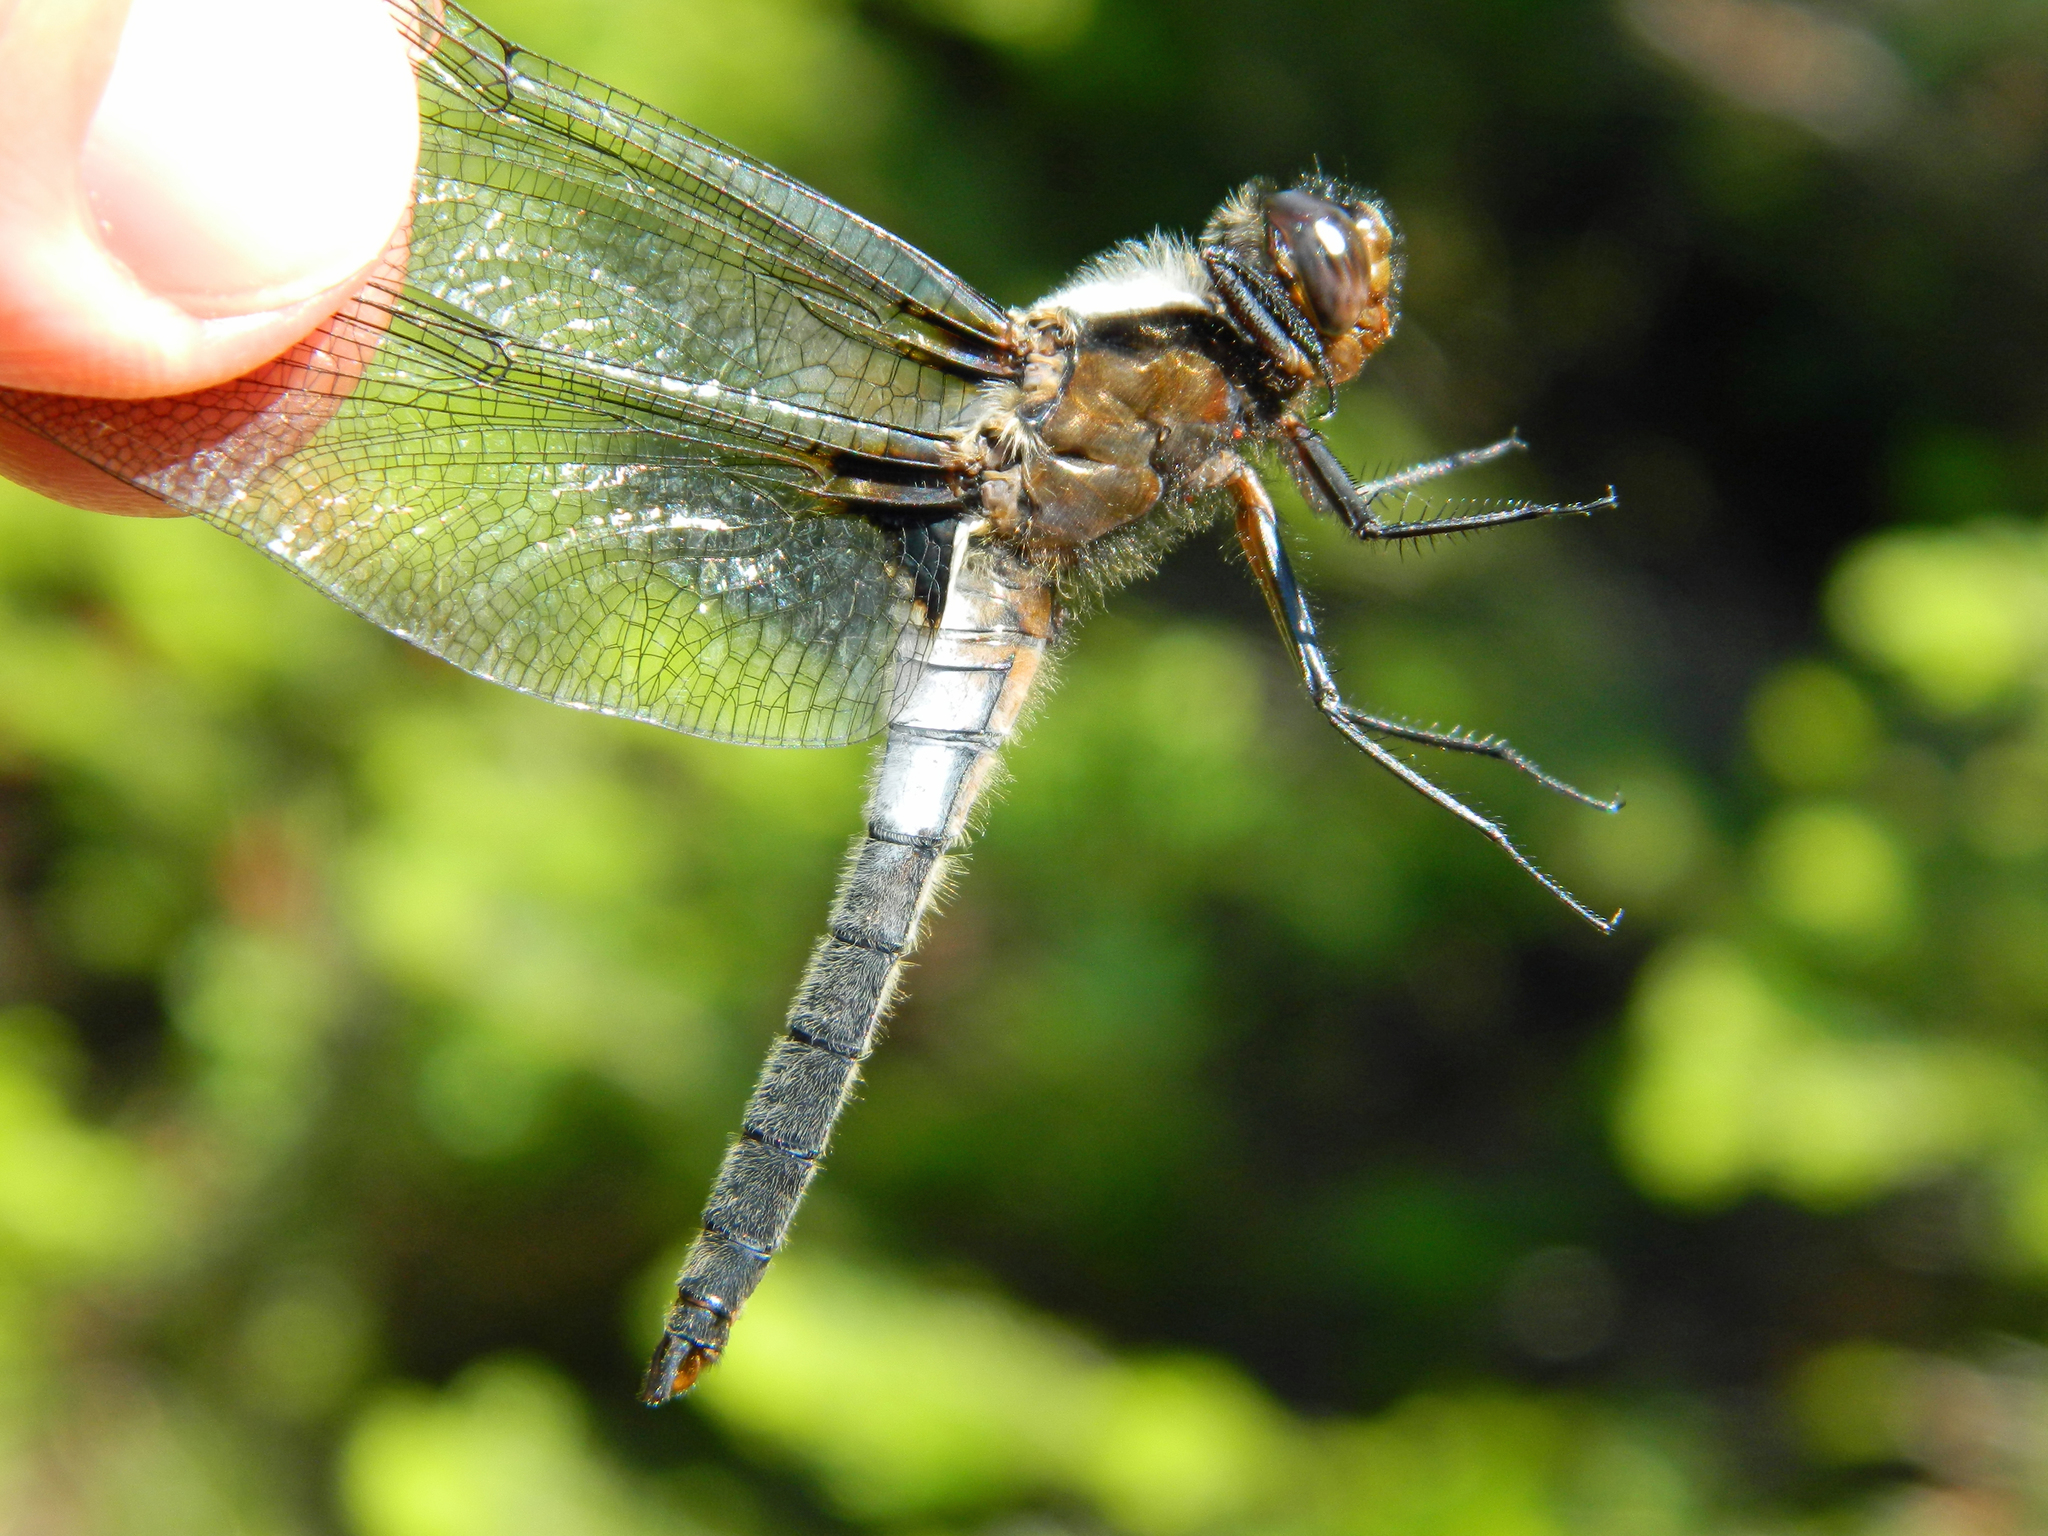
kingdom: Animalia
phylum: Arthropoda
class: Insecta
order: Odonata
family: Libellulidae
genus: Ladona
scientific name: Ladona julia
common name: Chalk-fronted corporal
